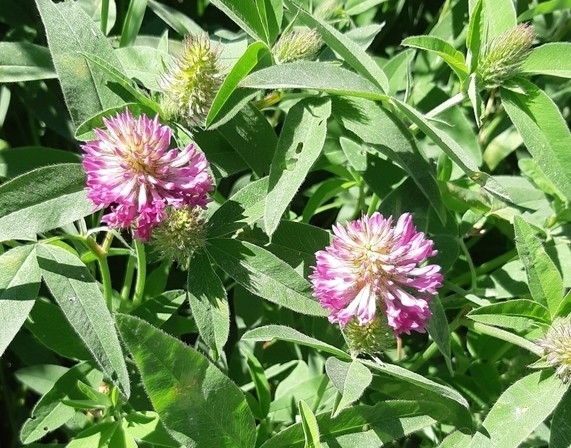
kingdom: Plantae
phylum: Tracheophyta
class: Magnoliopsida
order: Fabales
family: Fabaceae
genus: Trifolium
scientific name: Trifolium medium
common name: Zigzag clover
